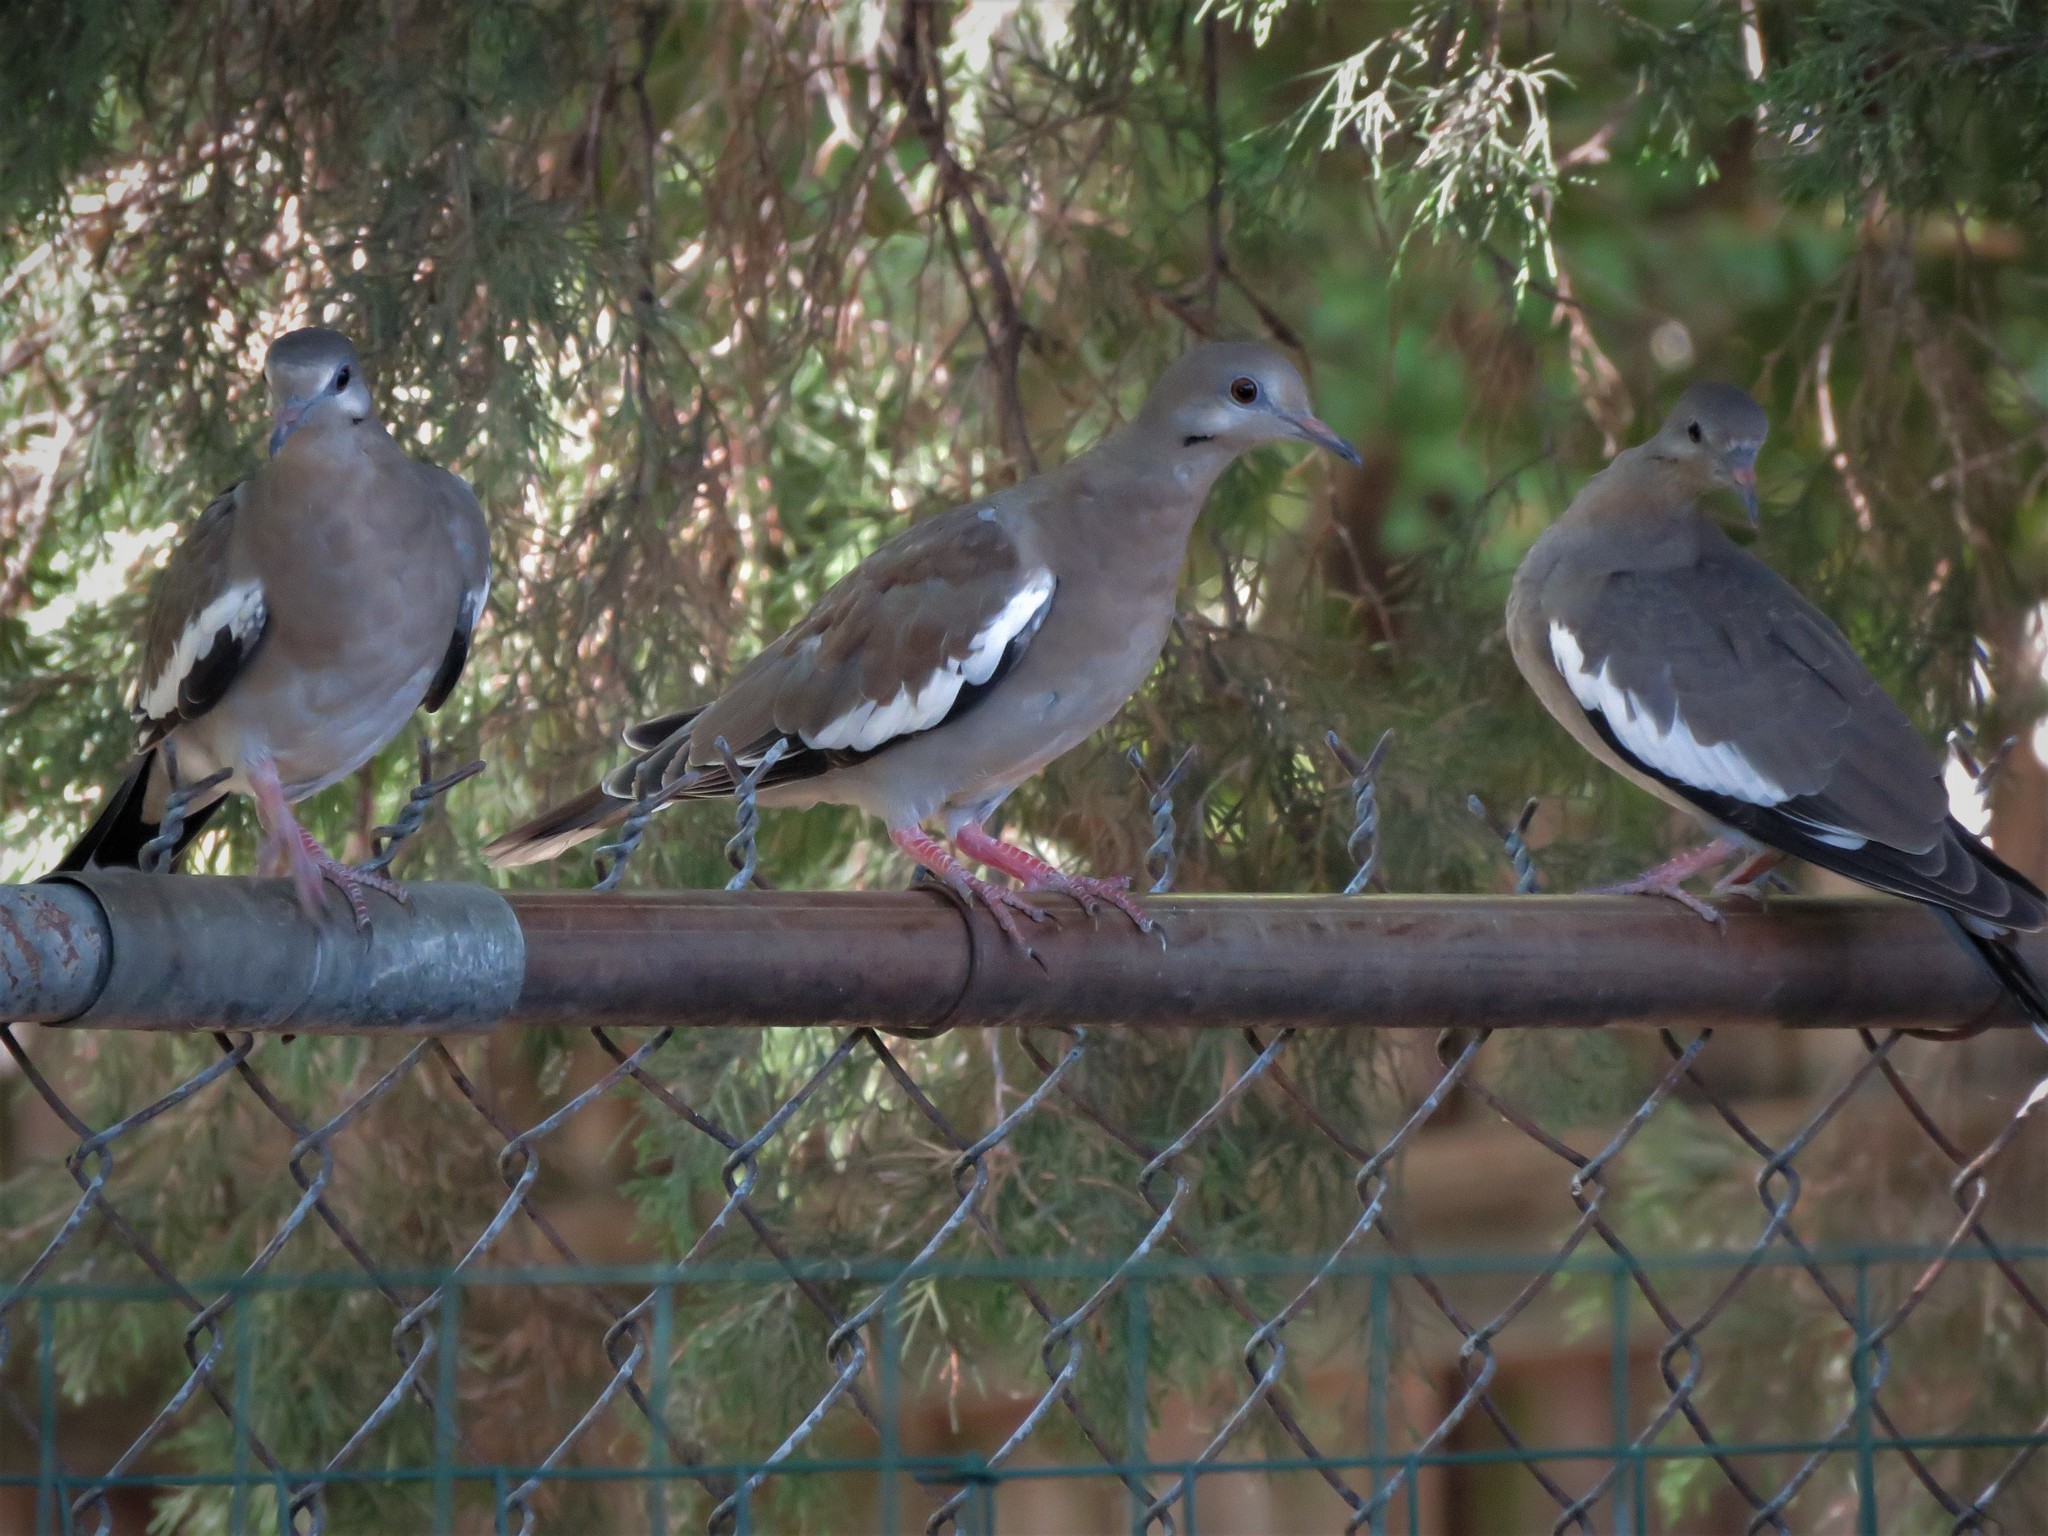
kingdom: Animalia
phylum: Chordata
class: Aves
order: Columbiformes
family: Columbidae
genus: Zenaida
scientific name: Zenaida asiatica
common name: White-winged dove
